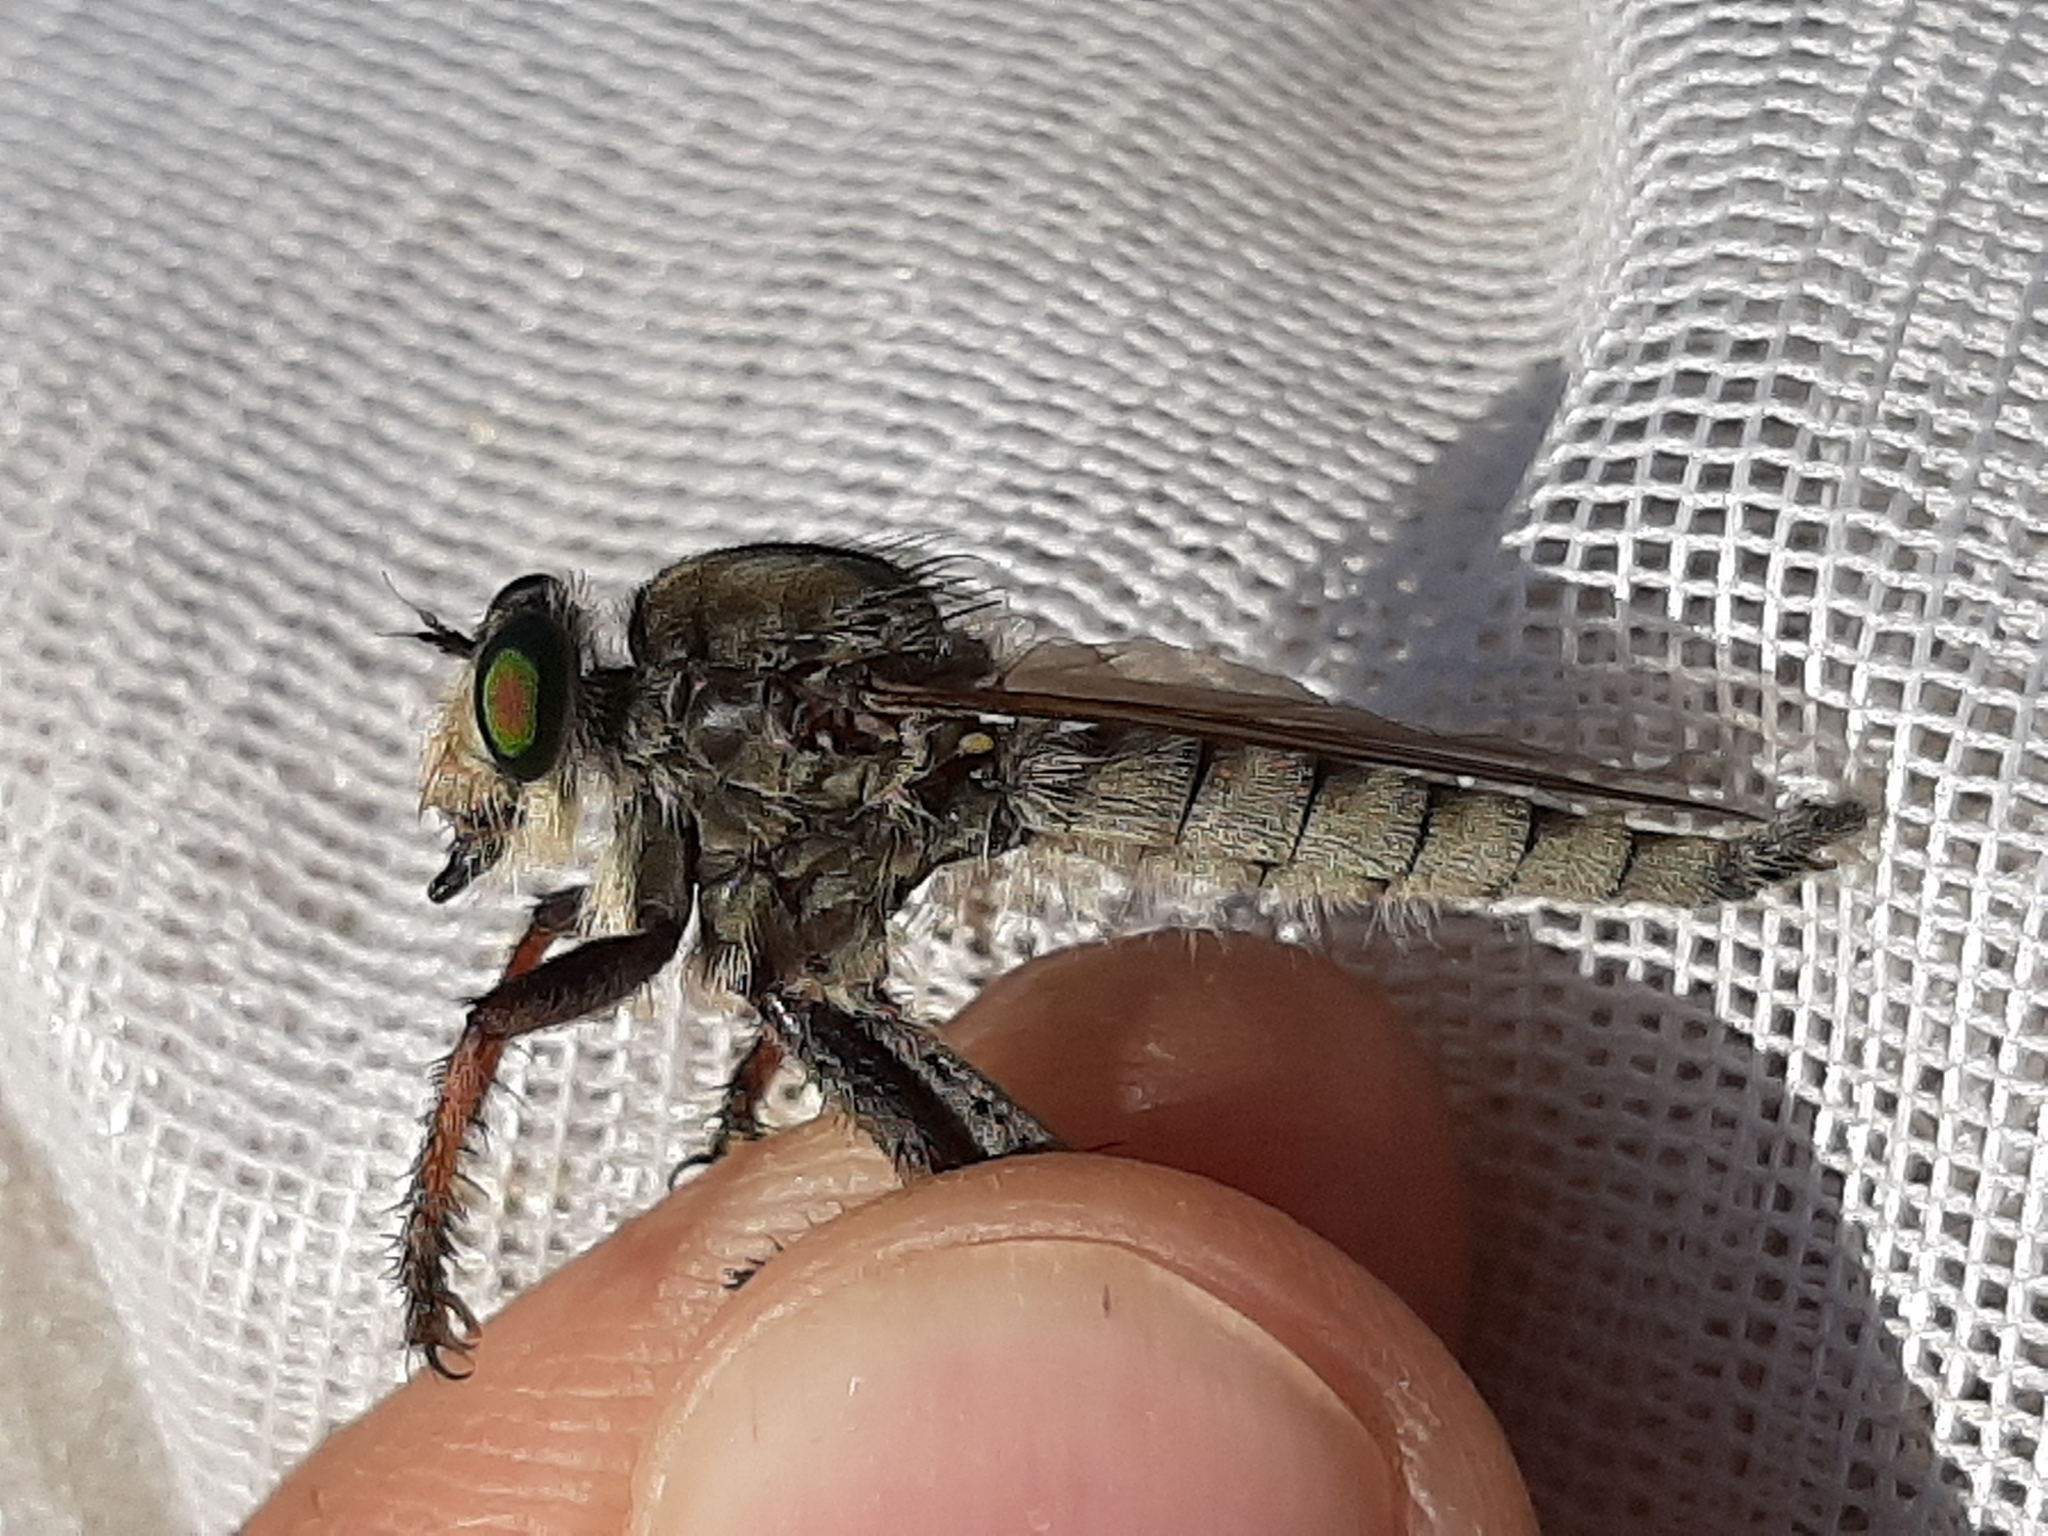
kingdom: Animalia
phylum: Arthropoda
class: Insecta
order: Diptera
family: Asilidae
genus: Promachus
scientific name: Promachus vertebratus
